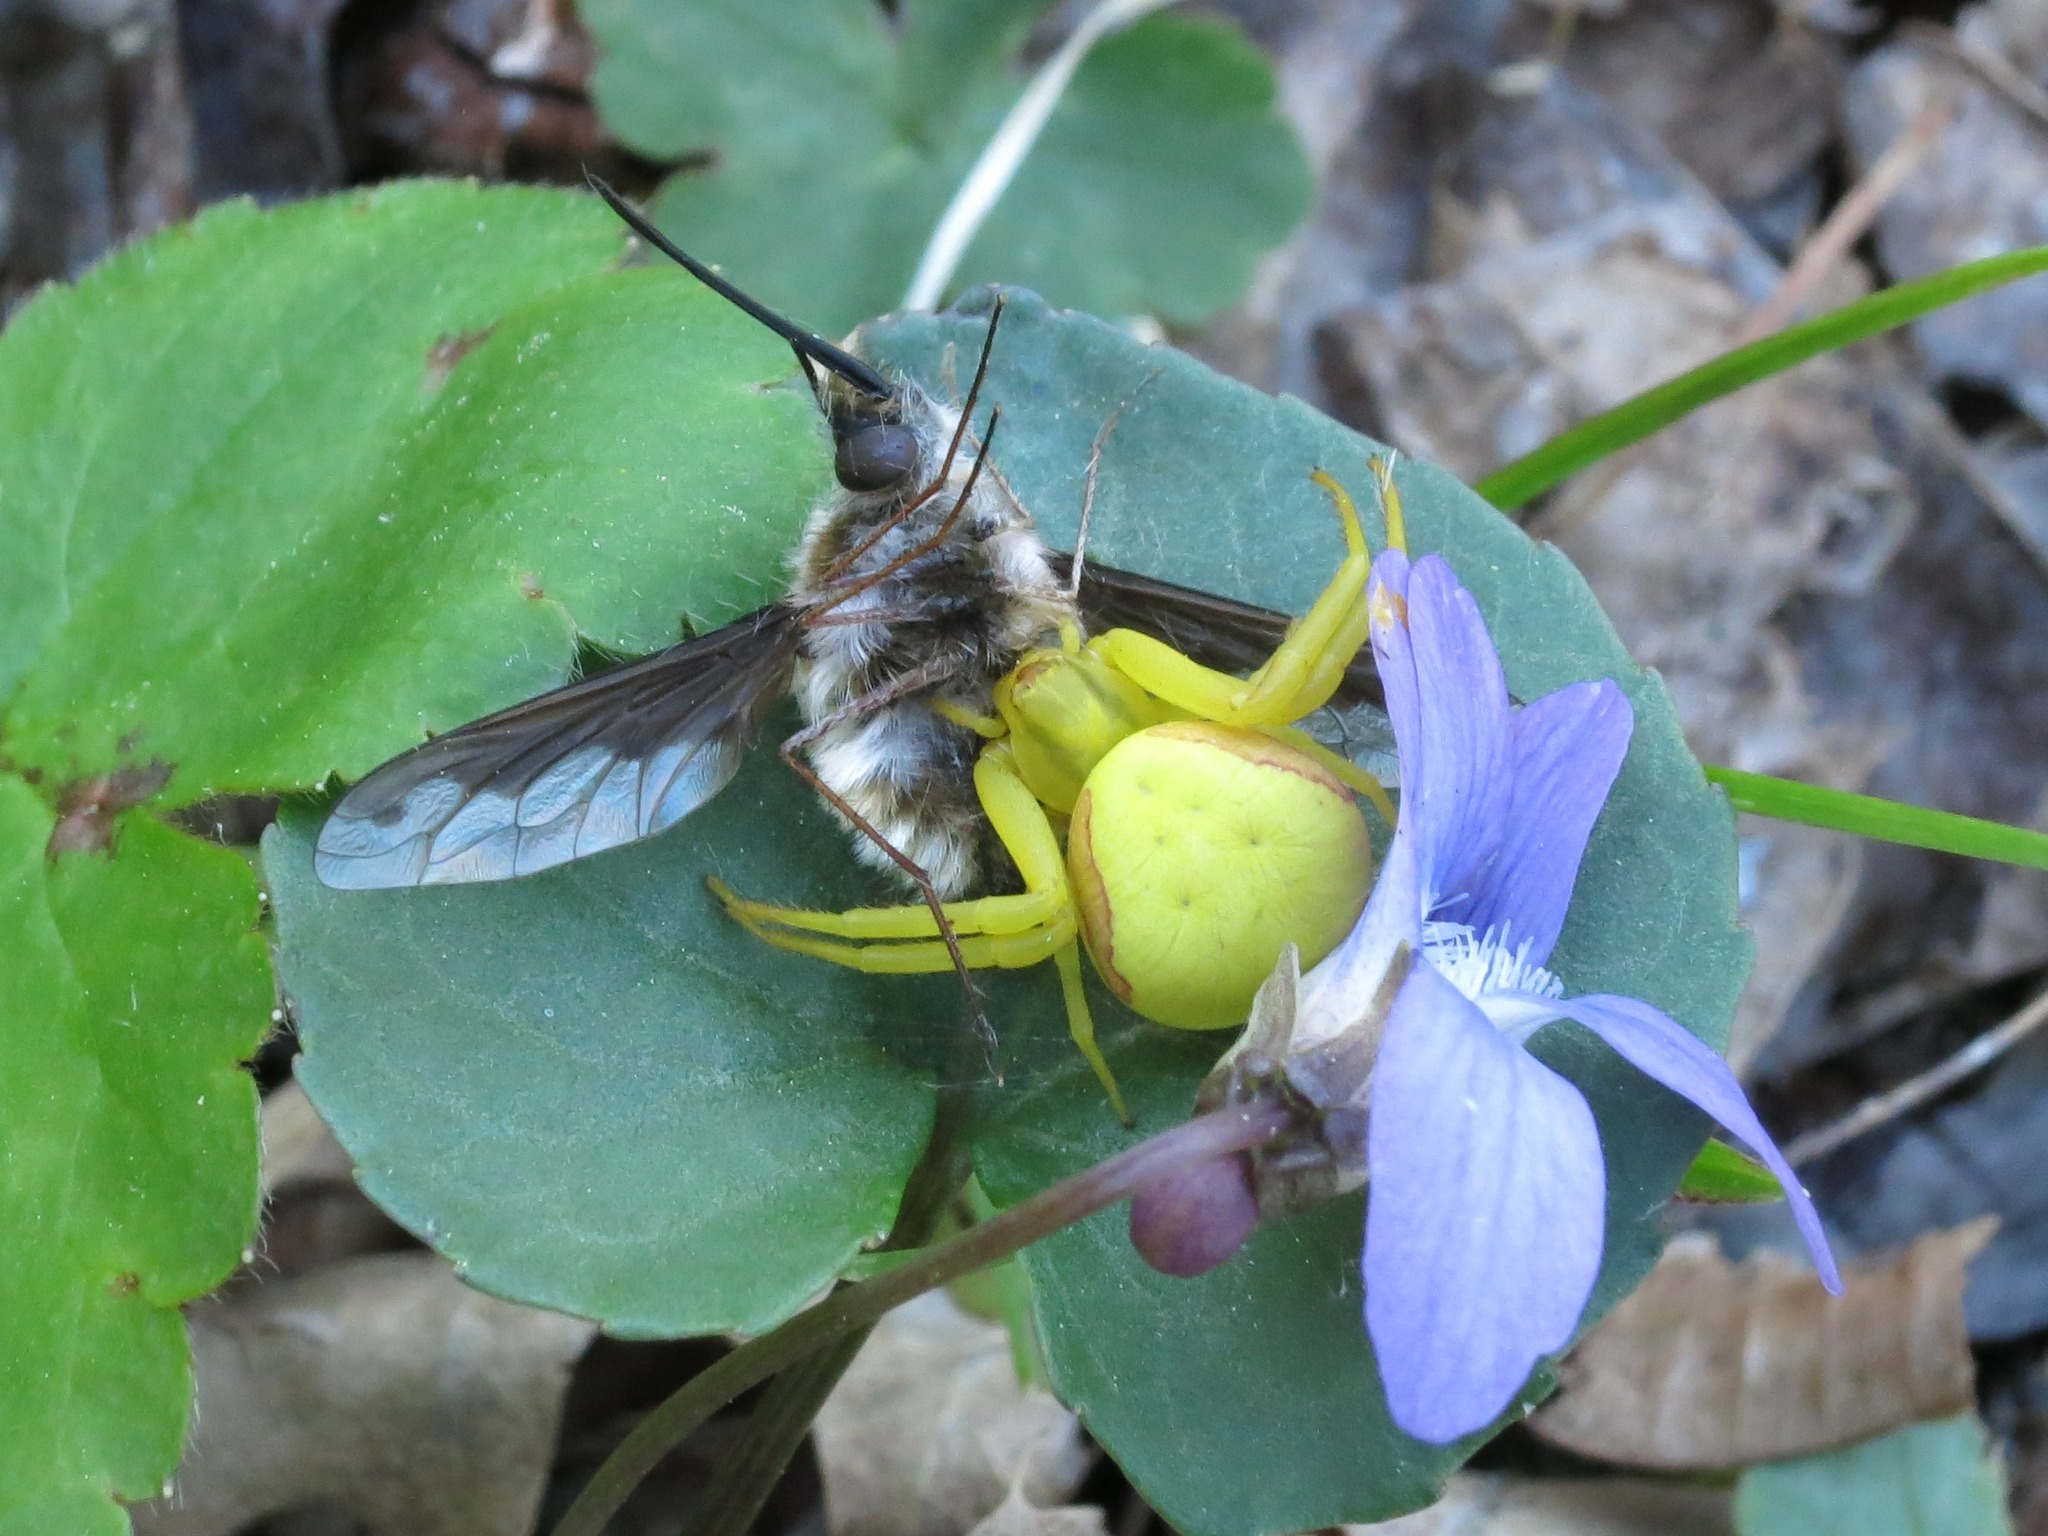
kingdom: Animalia
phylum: Arthropoda
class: Arachnida
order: Araneae
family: Thomisidae
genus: Misumena
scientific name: Misumena vatia
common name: Goldenrod crab spider
